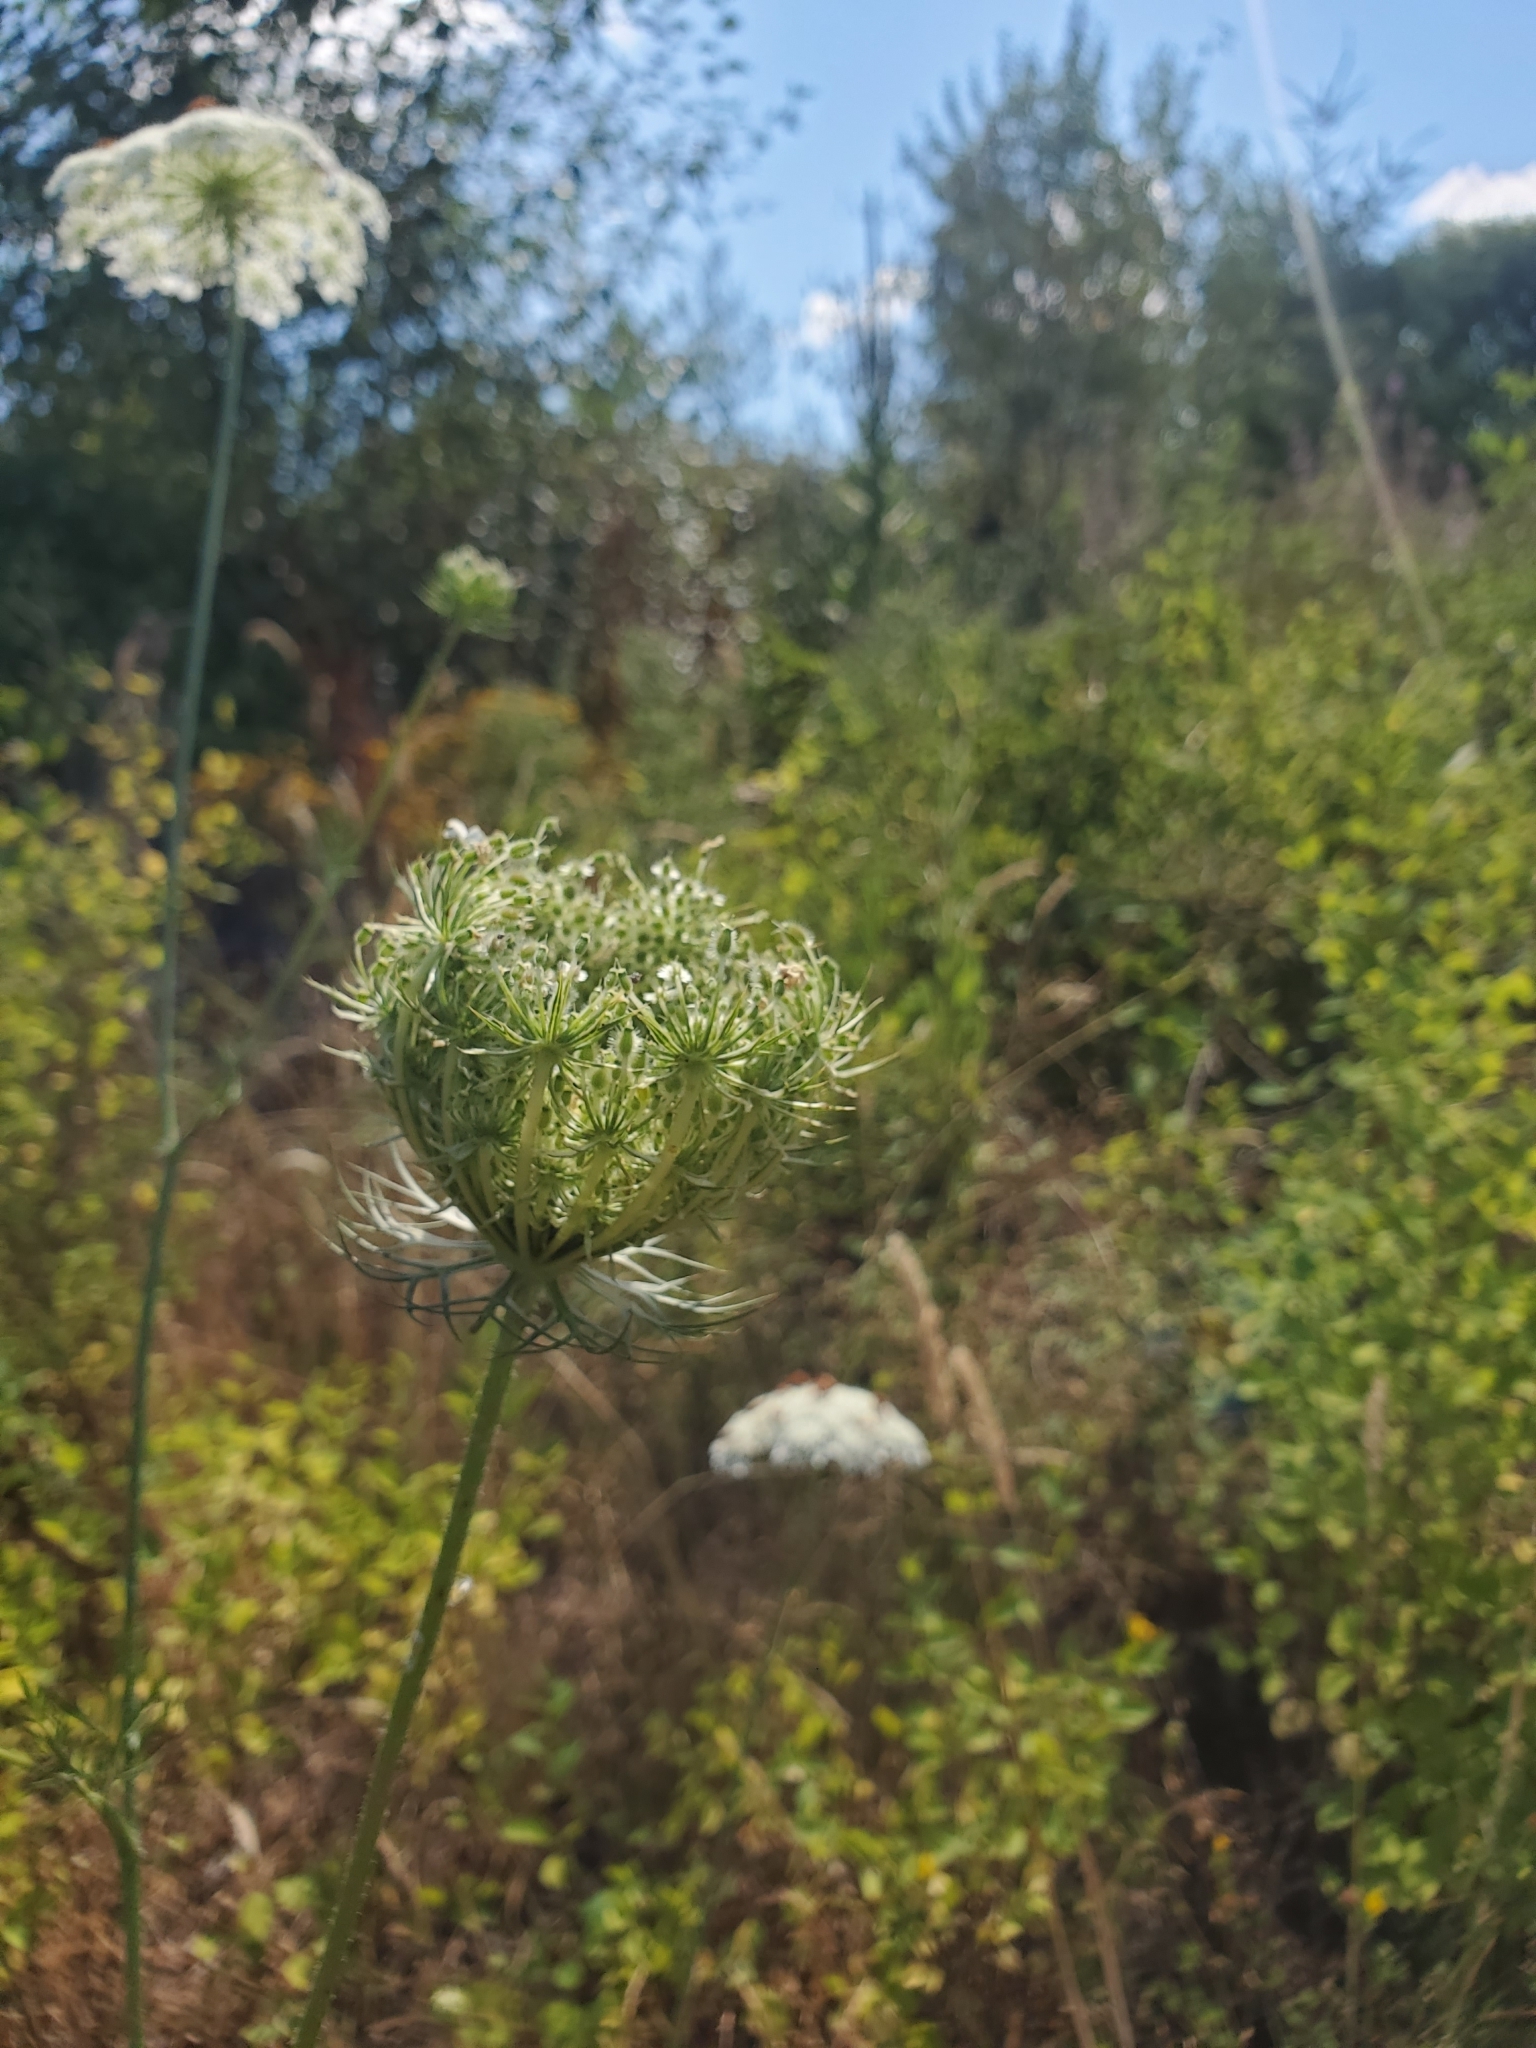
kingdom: Plantae
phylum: Tracheophyta
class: Magnoliopsida
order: Apiales
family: Apiaceae
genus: Daucus
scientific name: Daucus carota
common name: Wild carrot
